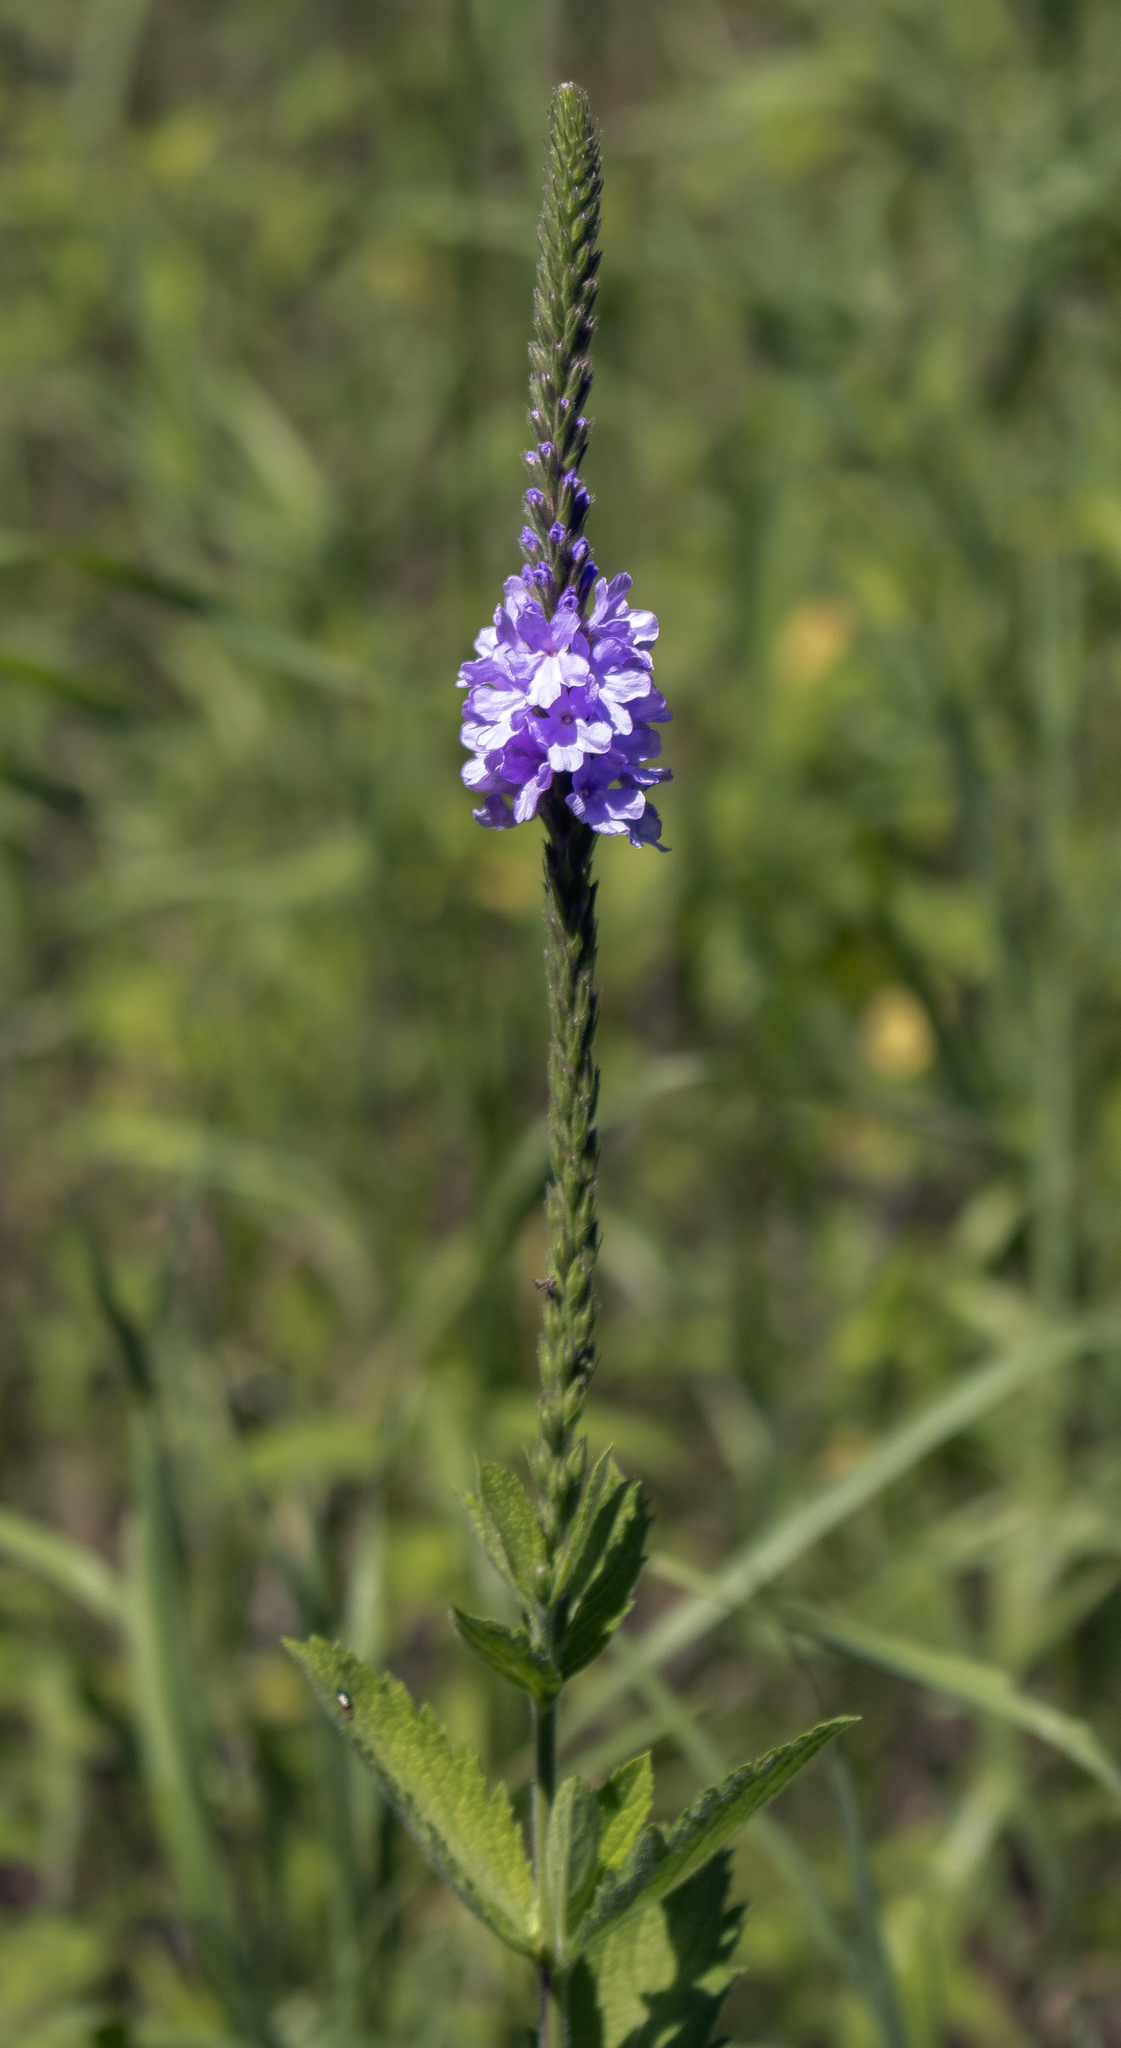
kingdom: Plantae
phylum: Tracheophyta
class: Magnoliopsida
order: Lamiales
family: Verbenaceae
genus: Verbena
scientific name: Verbena stricta
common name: Hoary vervain
